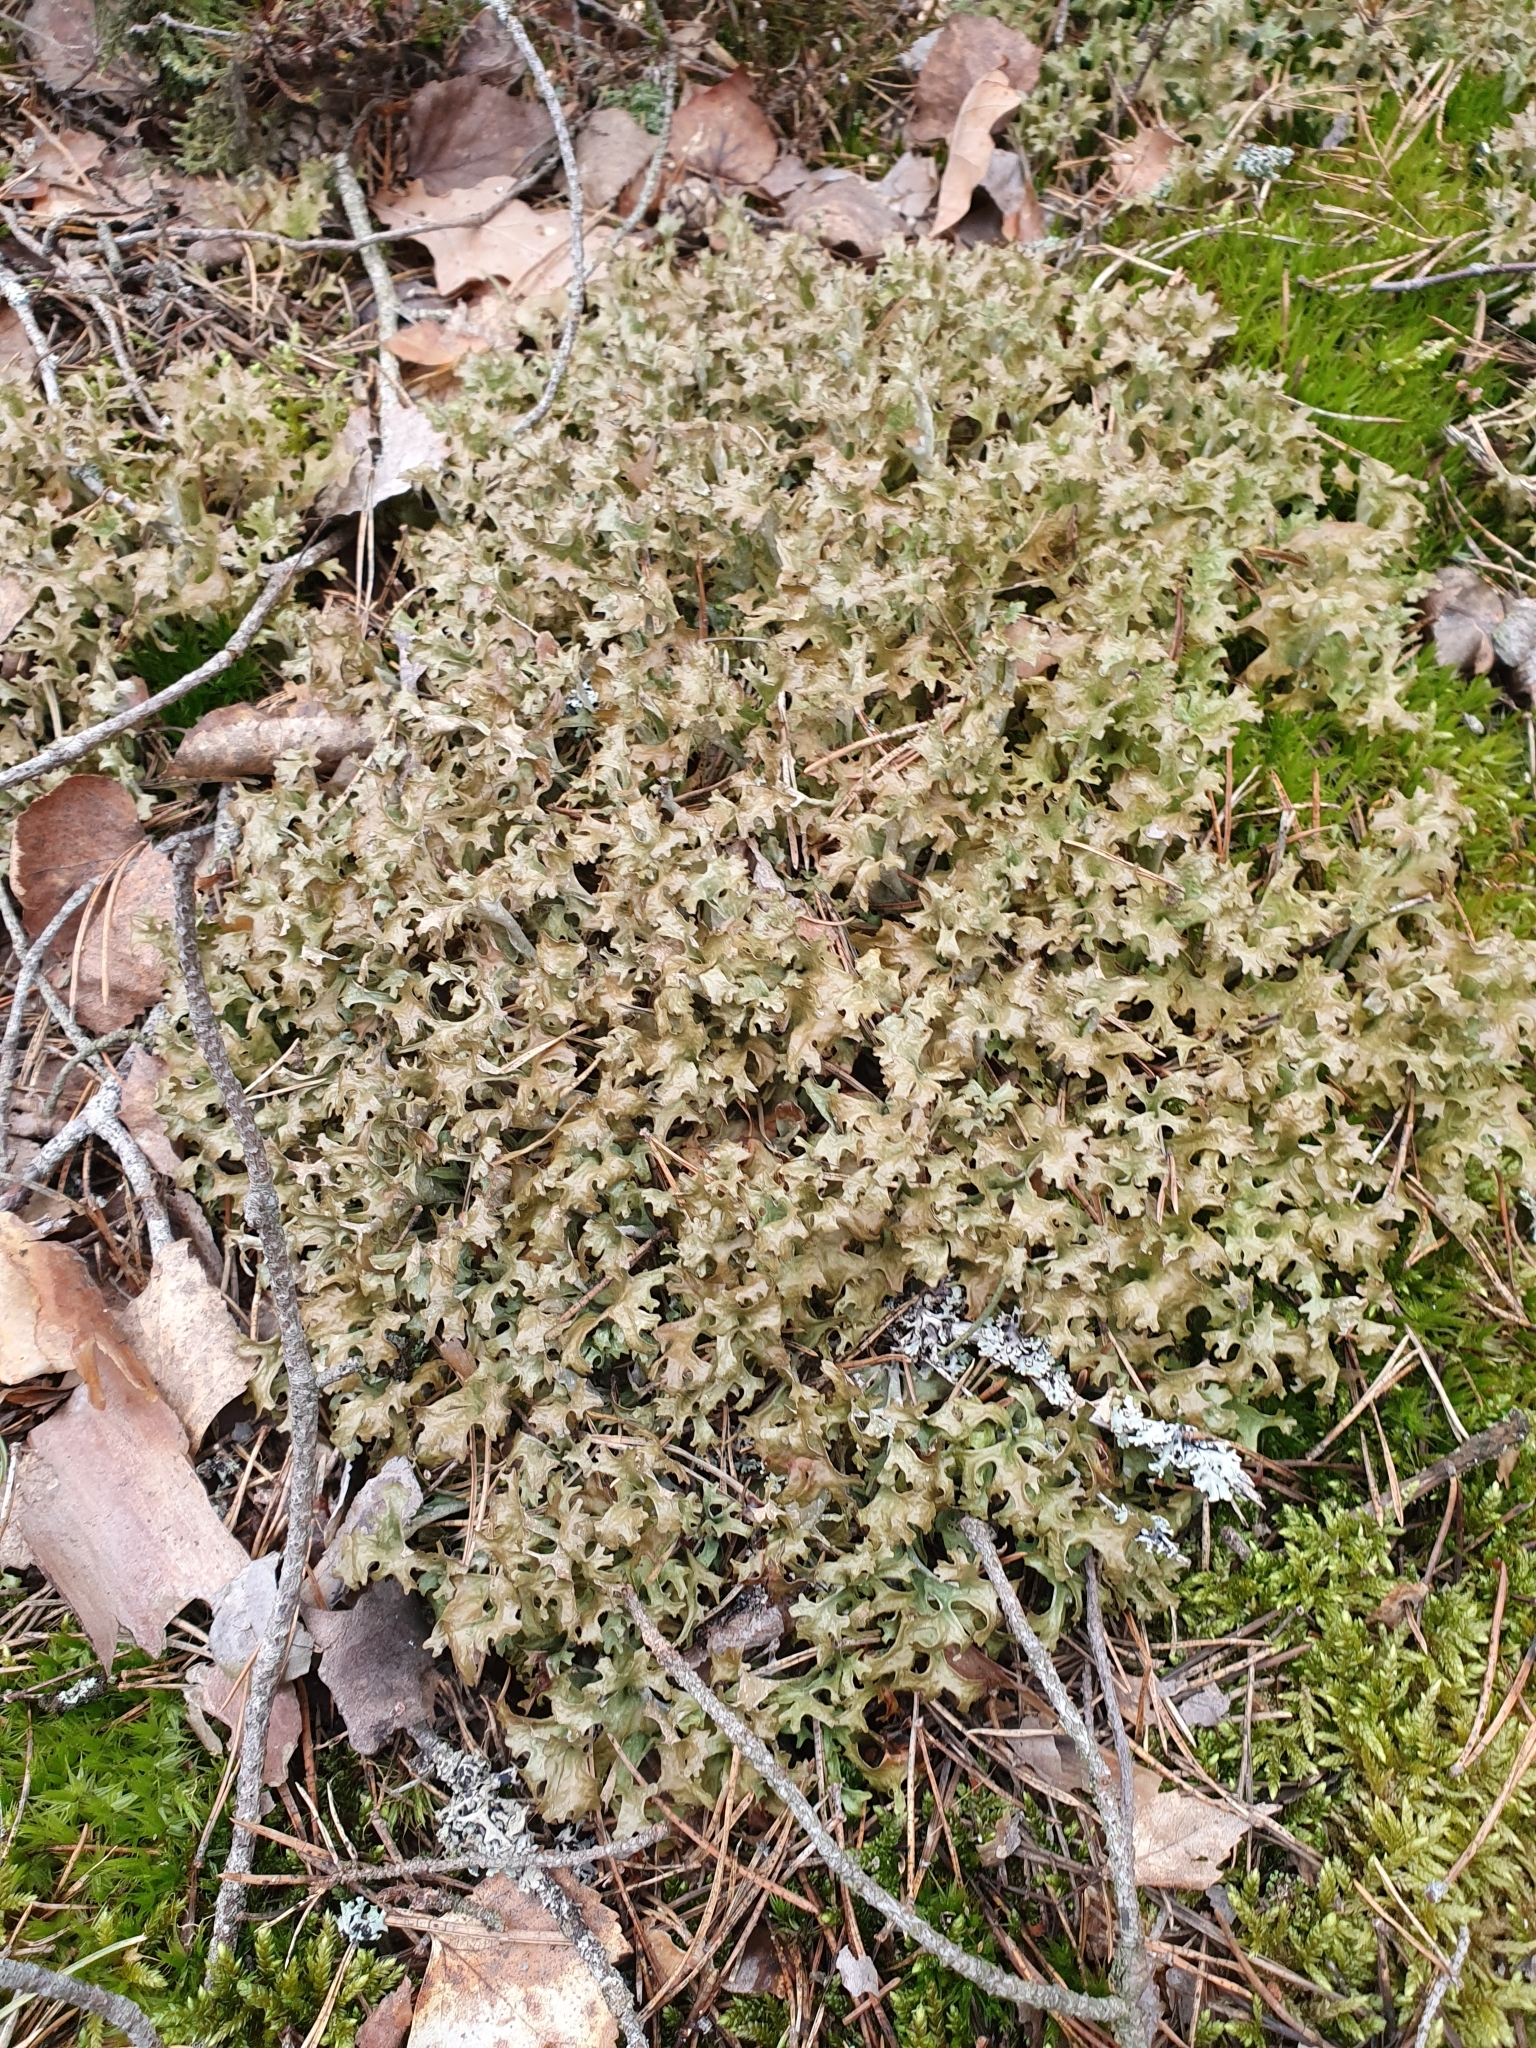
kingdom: Fungi
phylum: Ascomycota
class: Lecanoromycetes
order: Lecanorales
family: Parmeliaceae
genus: Cetraria
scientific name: Cetraria islandica
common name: Iceland lichen
